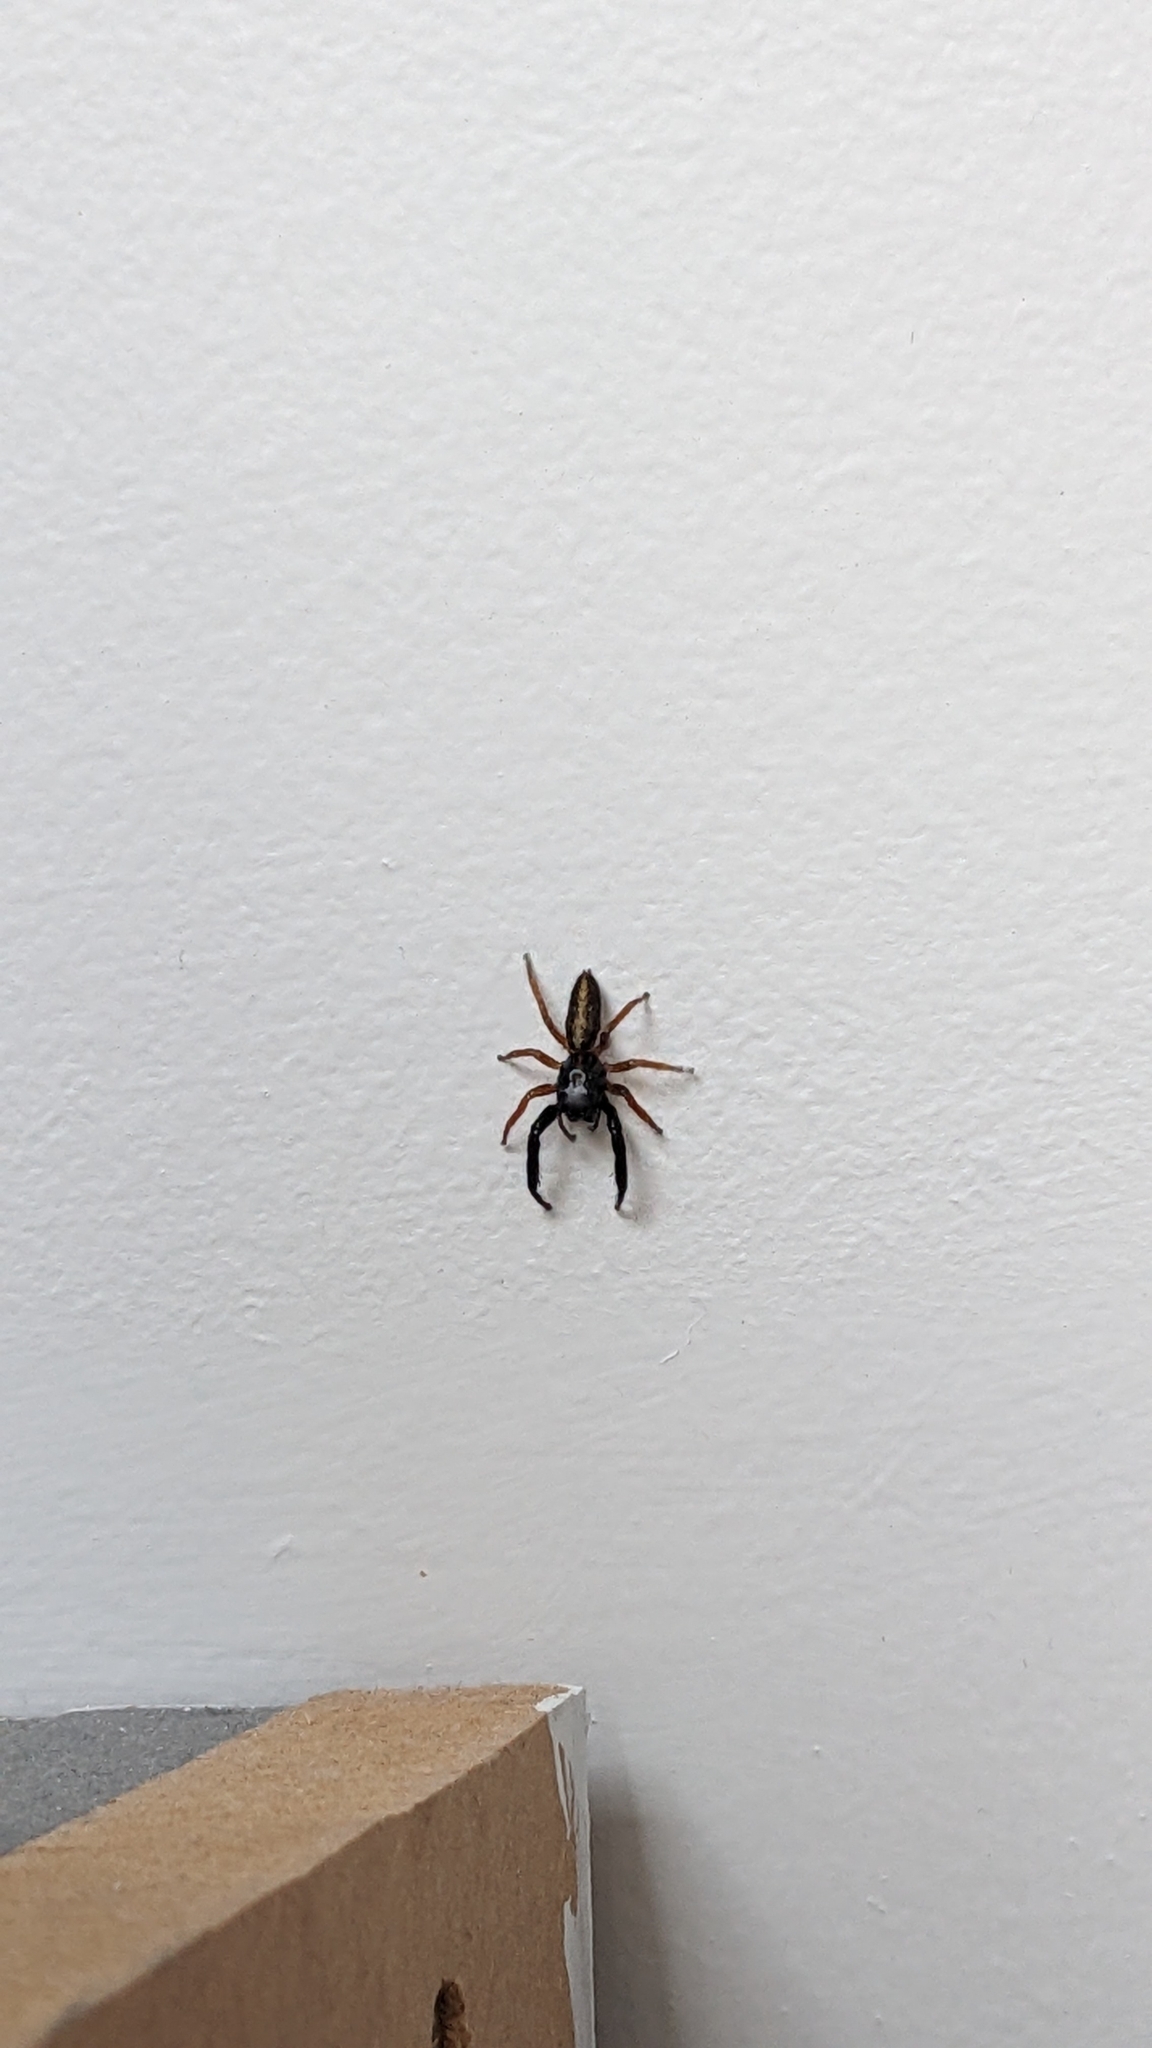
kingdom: Animalia
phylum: Arthropoda
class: Arachnida
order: Araneae
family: Salticidae
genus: Trite
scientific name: Trite planiceps
